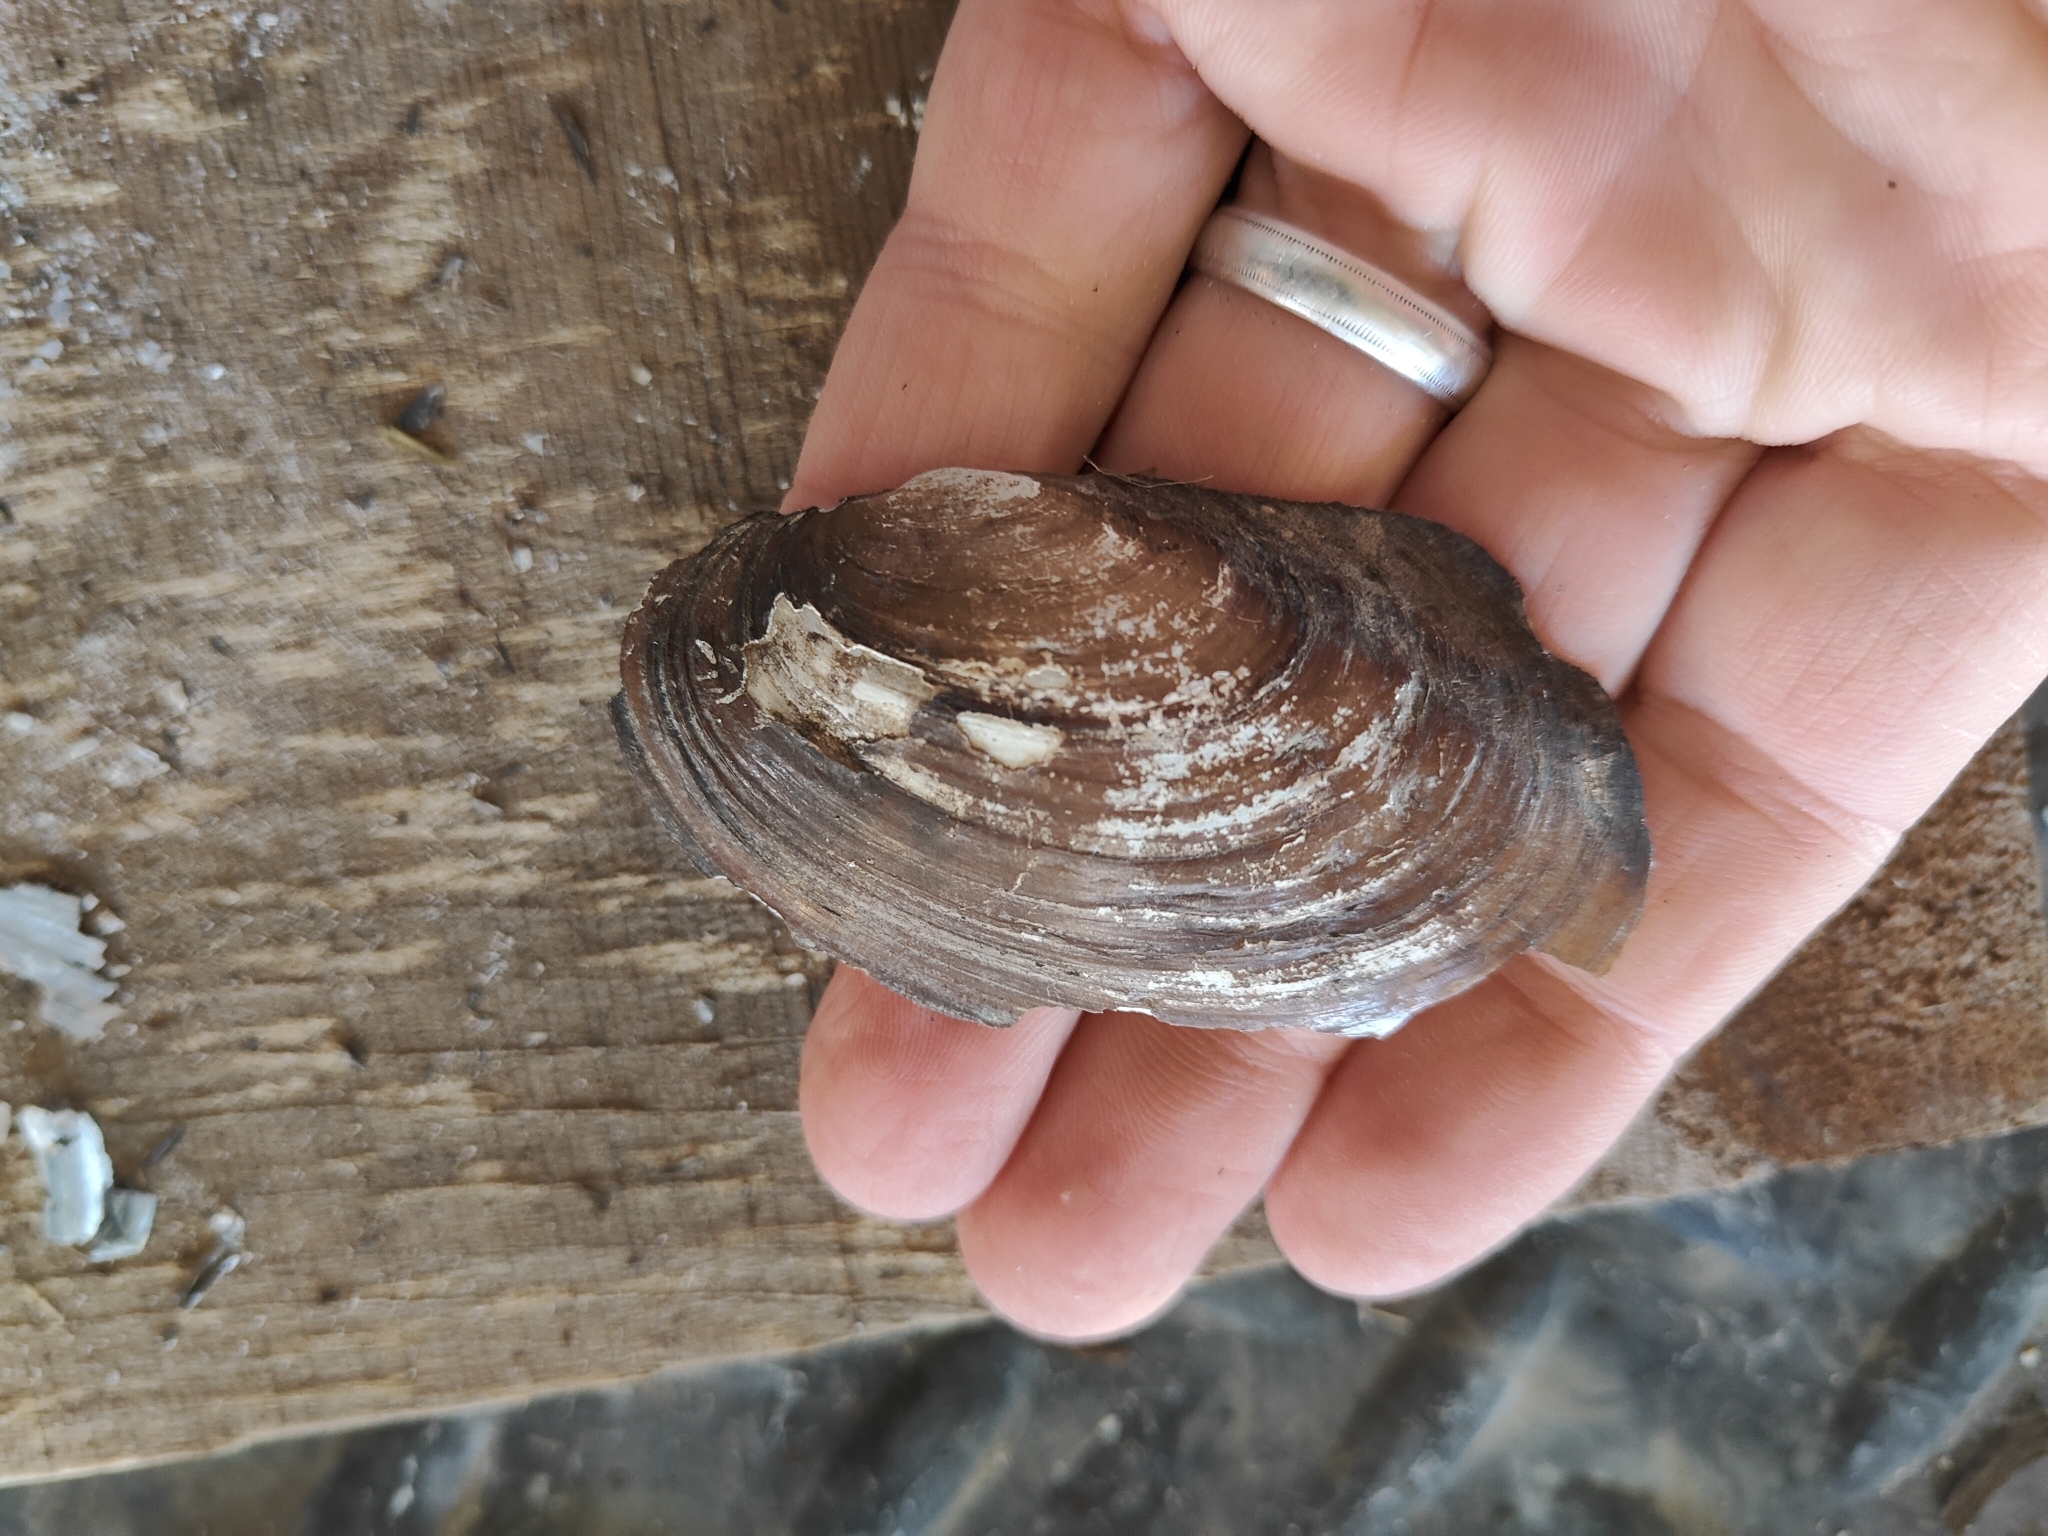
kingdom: Animalia
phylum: Mollusca
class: Bivalvia
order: Unionida
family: Unionidae
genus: Potamilus
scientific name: Potamilus fragilis
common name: Fragile papershell
